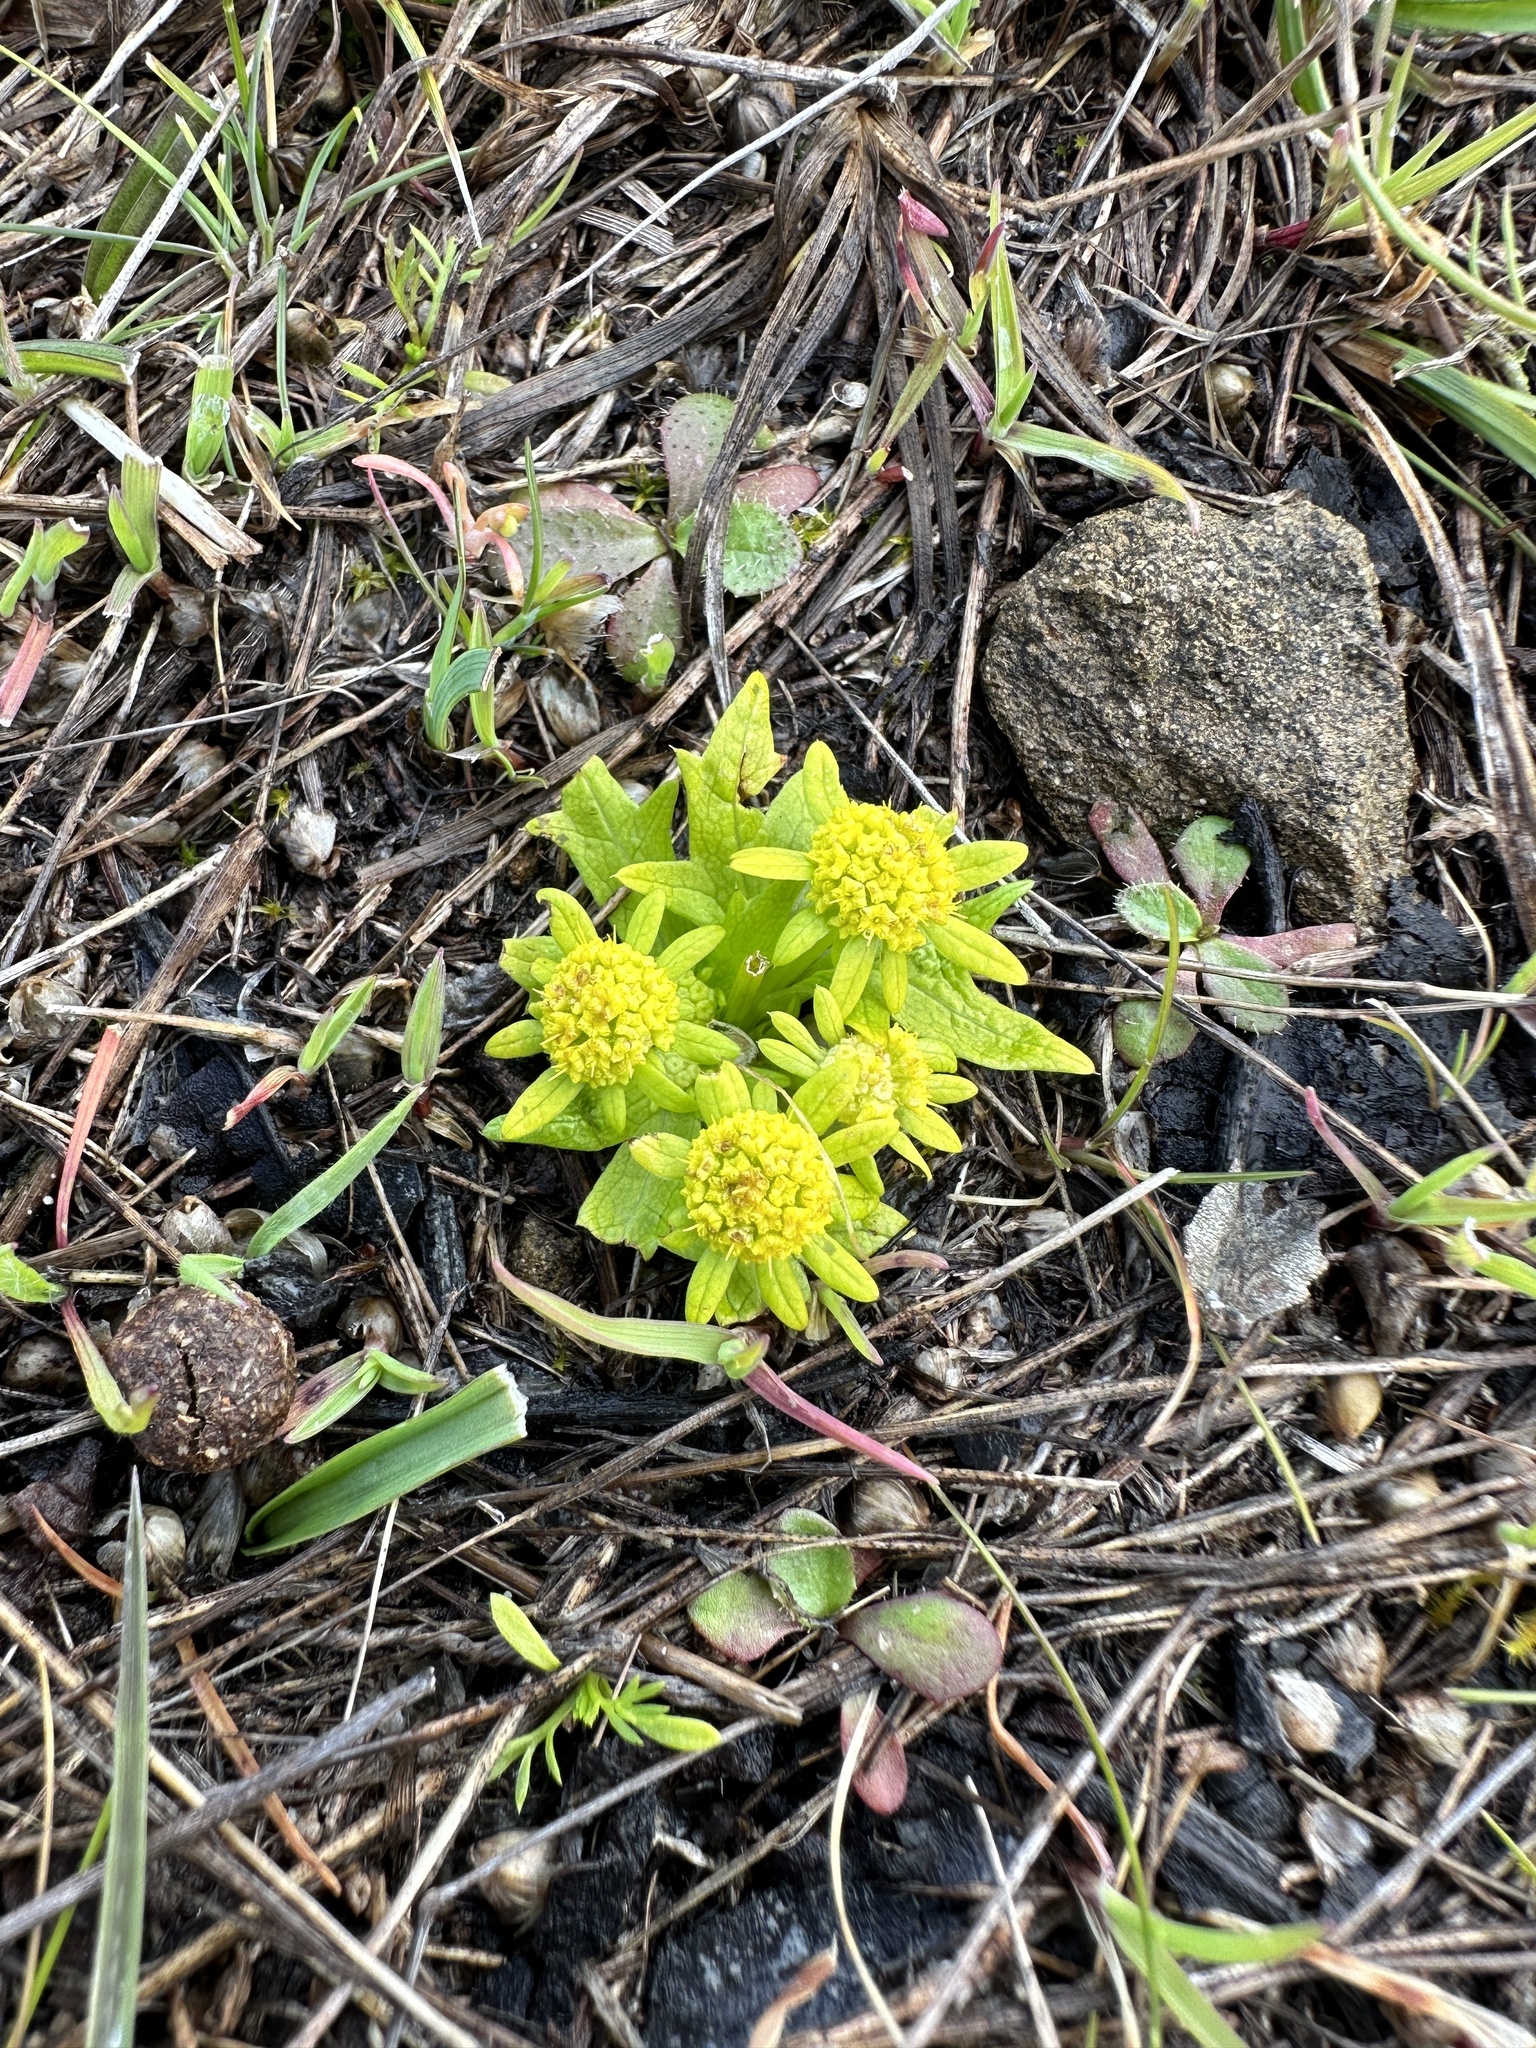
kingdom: Plantae
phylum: Tracheophyta
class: Magnoliopsida
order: Apiales
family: Apiaceae
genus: Sanicula
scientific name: Sanicula arctopoides
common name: Footsteps-of-spring
